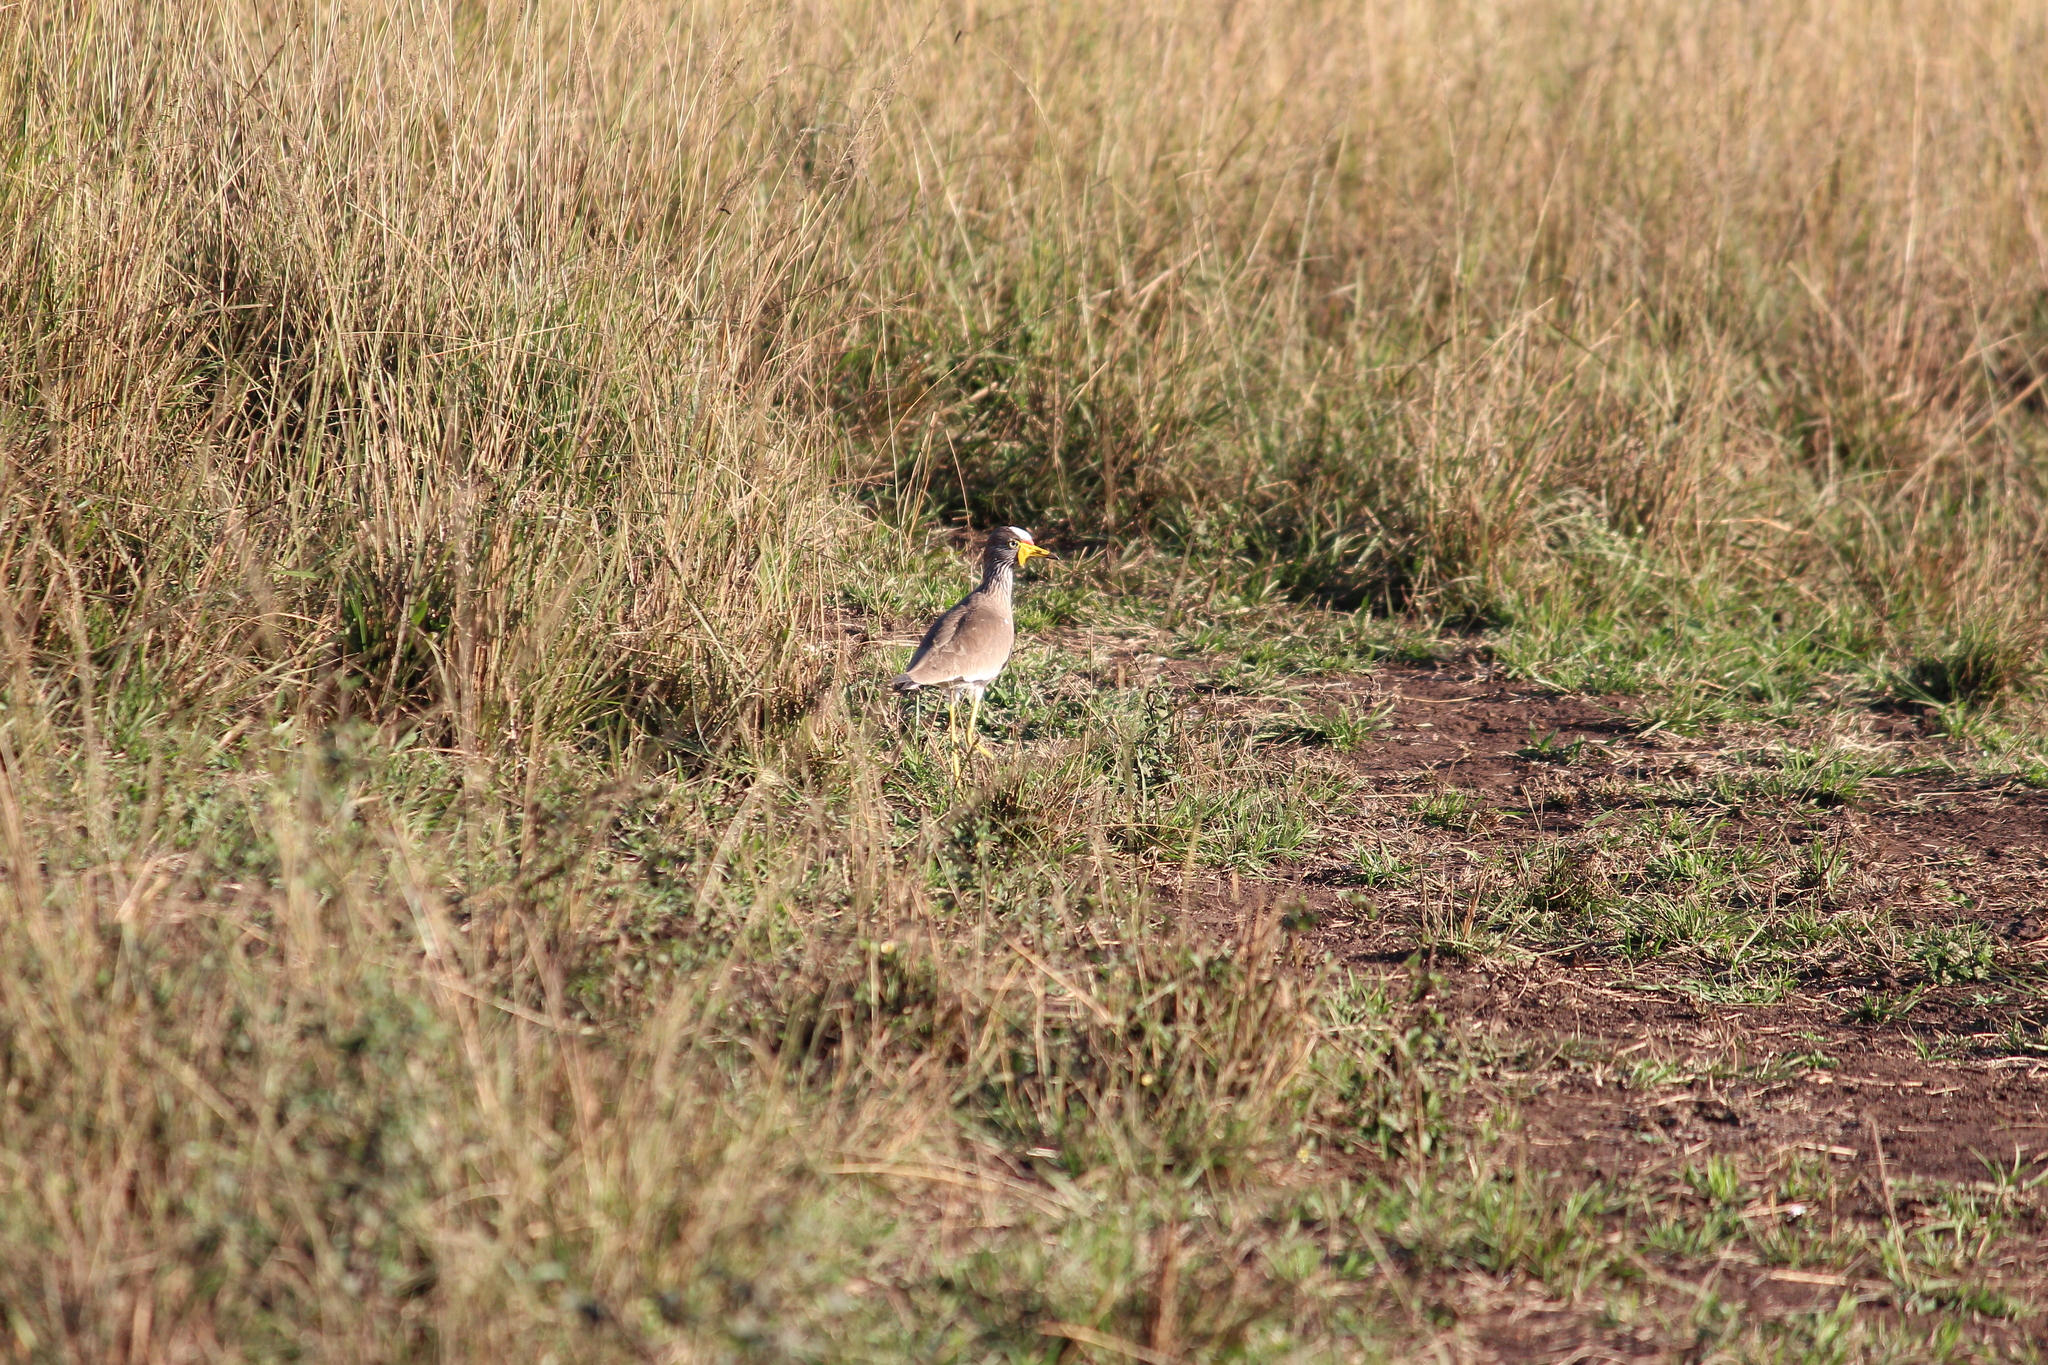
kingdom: Animalia
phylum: Chordata
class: Aves
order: Charadriiformes
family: Charadriidae
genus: Vanellus
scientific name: Vanellus senegallus
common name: African wattled lapwing
